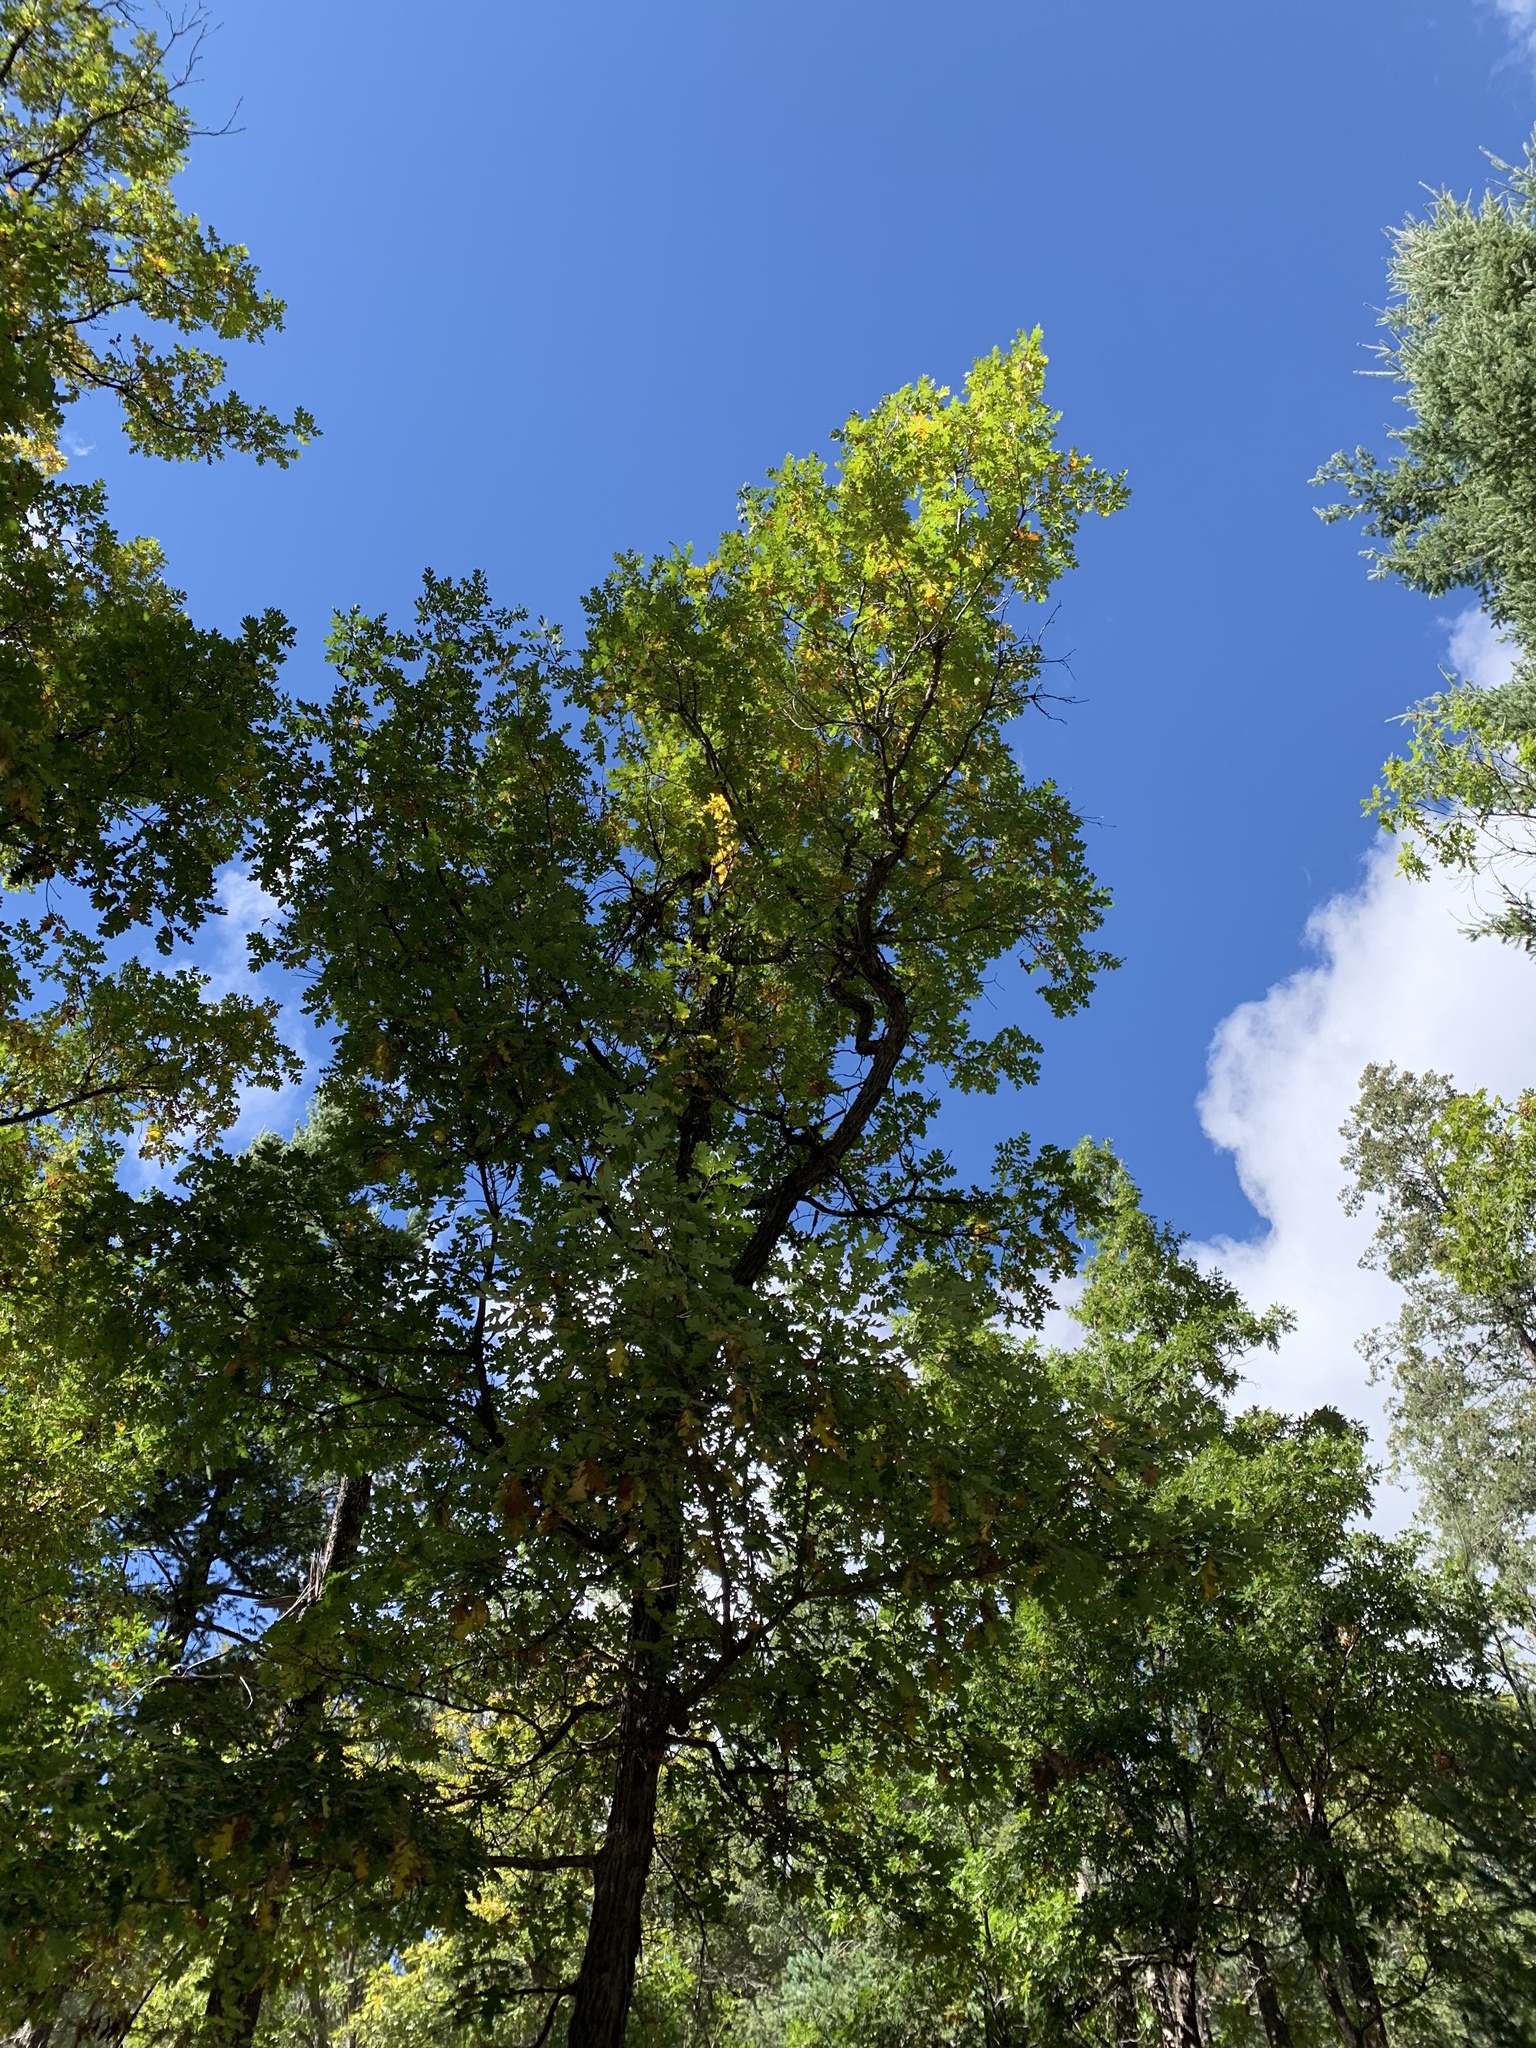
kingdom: Plantae
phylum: Tracheophyta
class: Magnoliopsida
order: Fagales
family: Fagaceae
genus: Quercus
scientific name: Quercus gambelii
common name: Gambel oak
